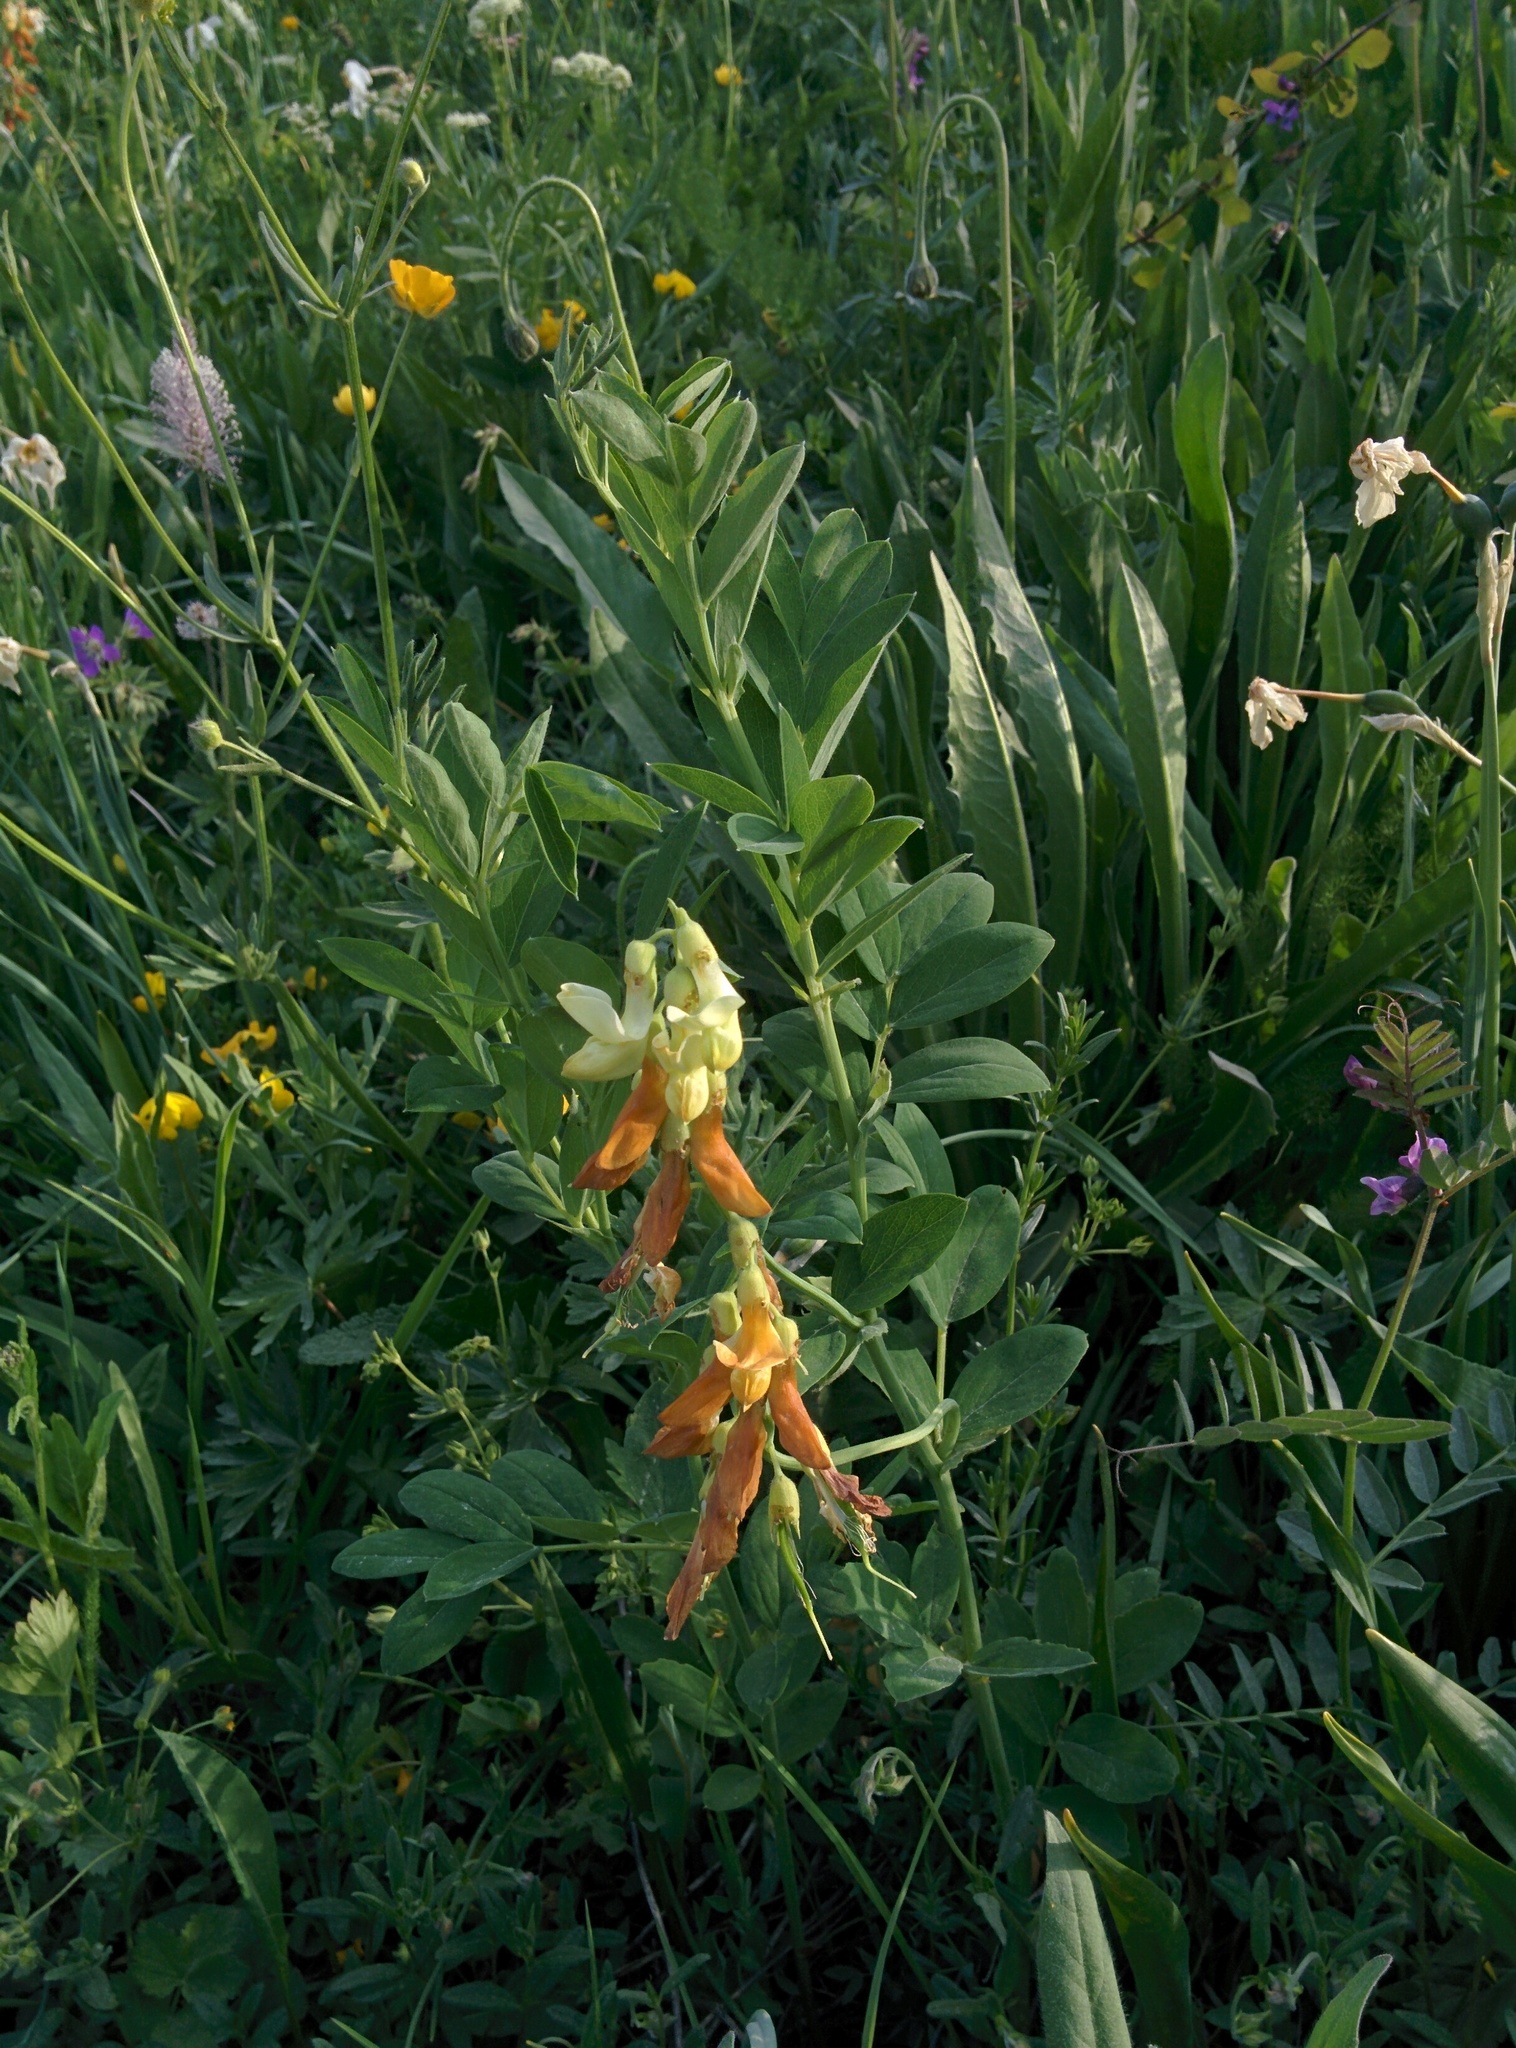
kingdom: Plantae
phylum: Tracheophyta
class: Magnoliopsida
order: Fabales
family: Fabaceae
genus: Lathyrus
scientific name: Lathyrus laevigatus
